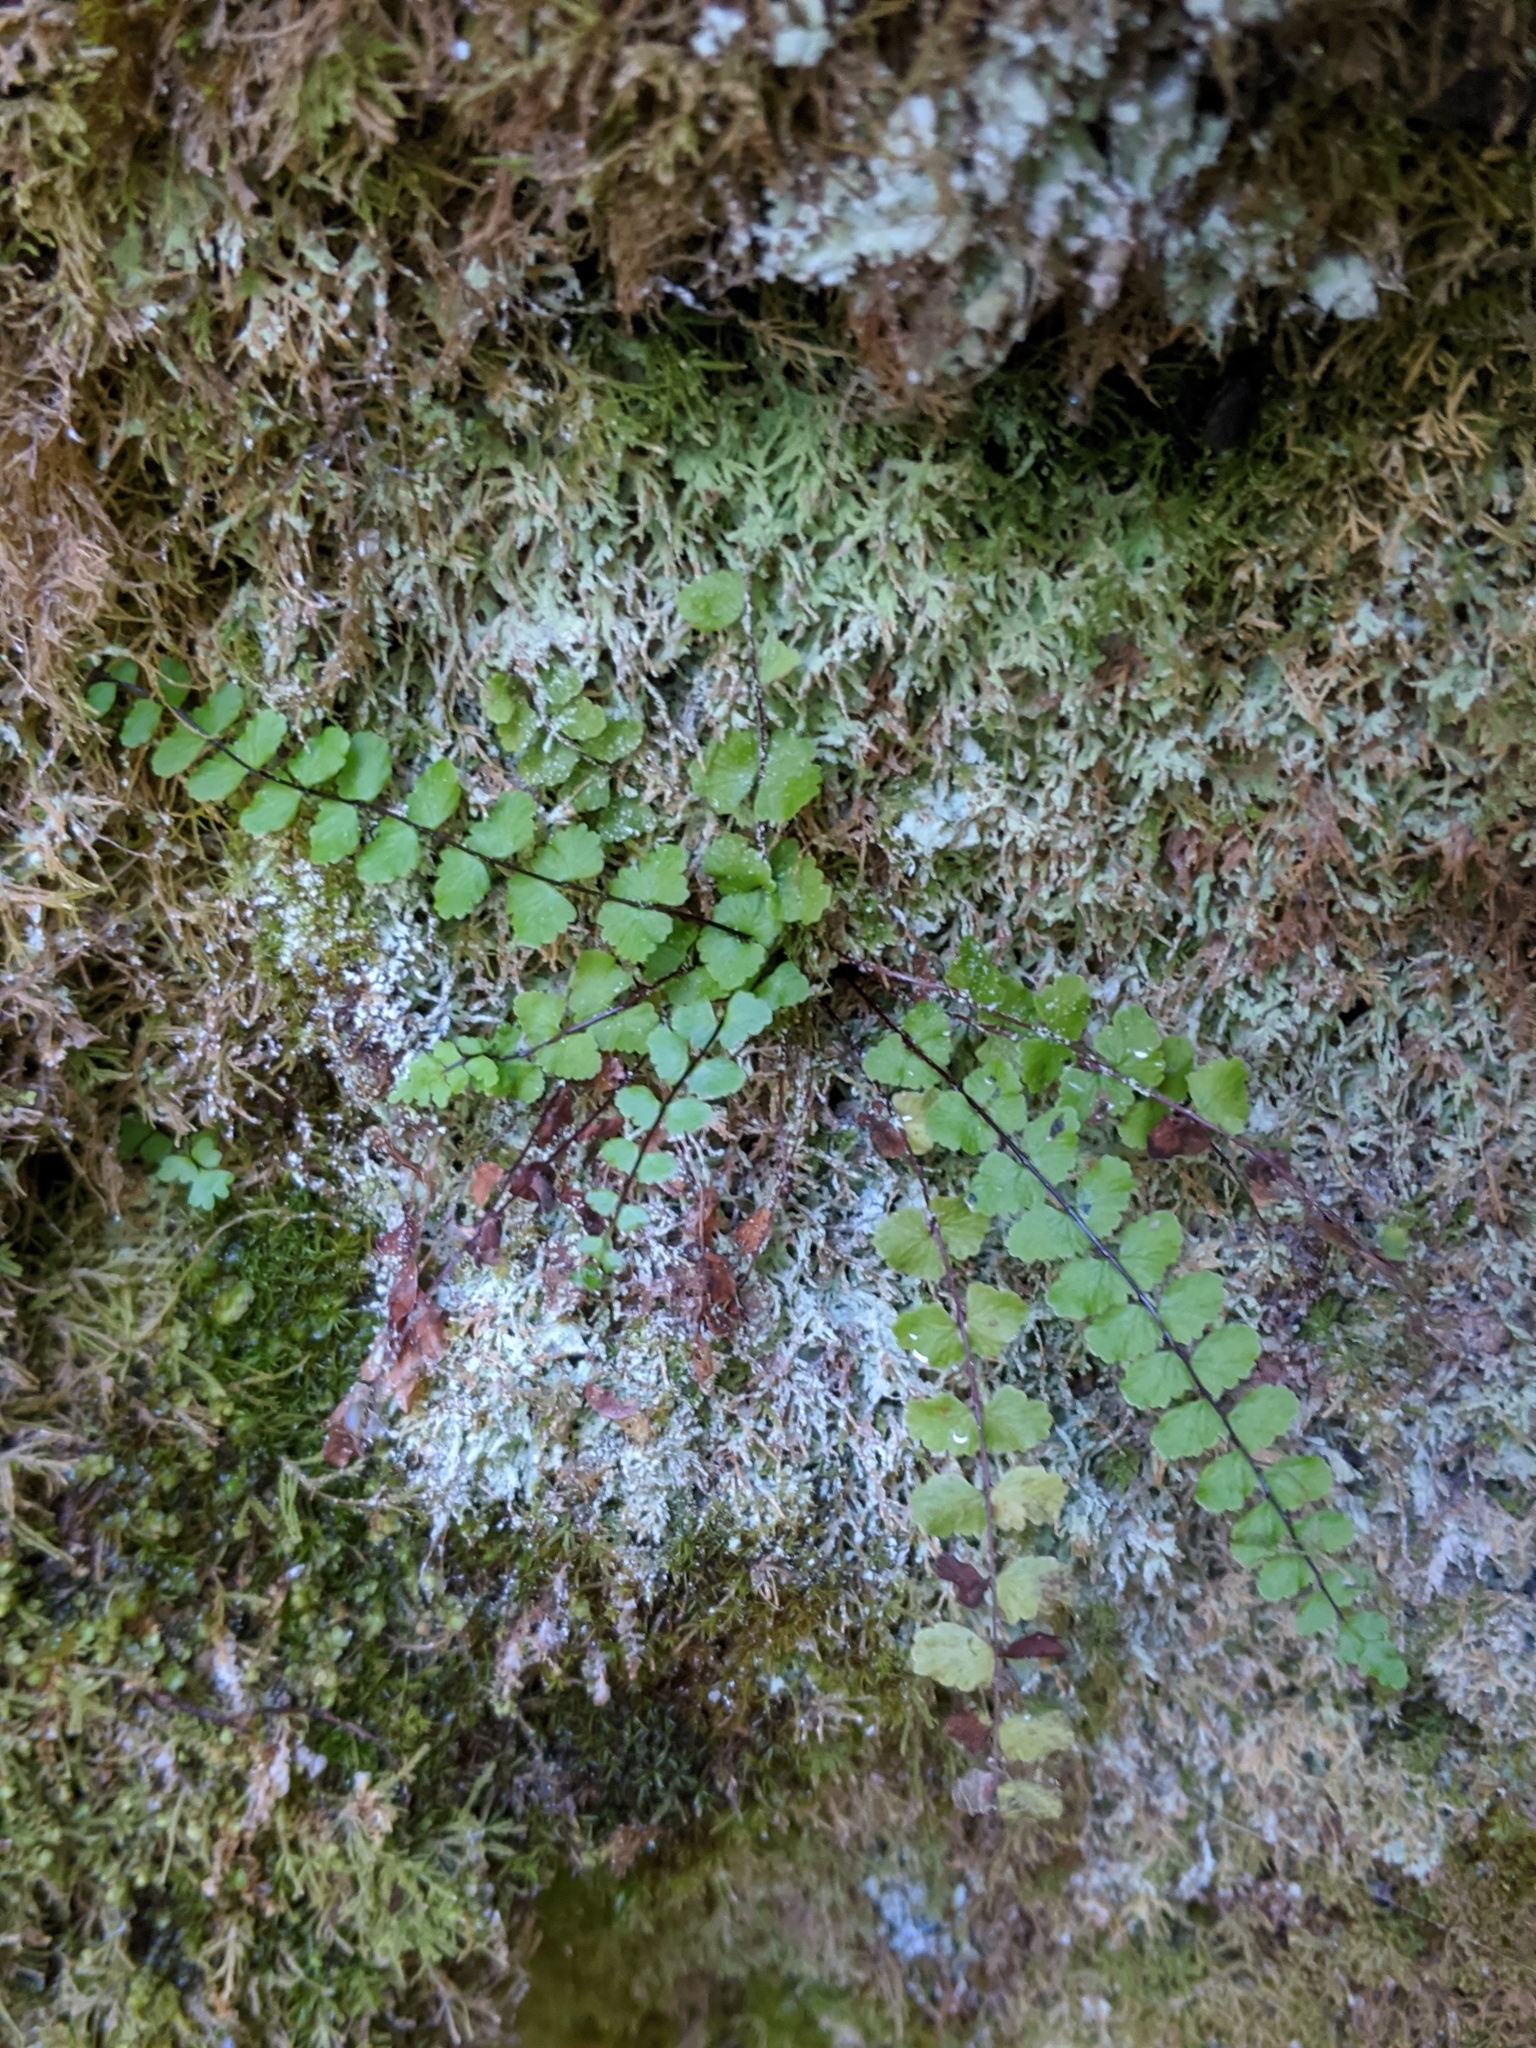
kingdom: Plantae
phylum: Tracheophyta
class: Polypodiopsida
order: Polypodiales
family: Aspleniaceae
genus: Asplenium
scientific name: Asplenium trichomanes
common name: Maidenhair spleenwort
